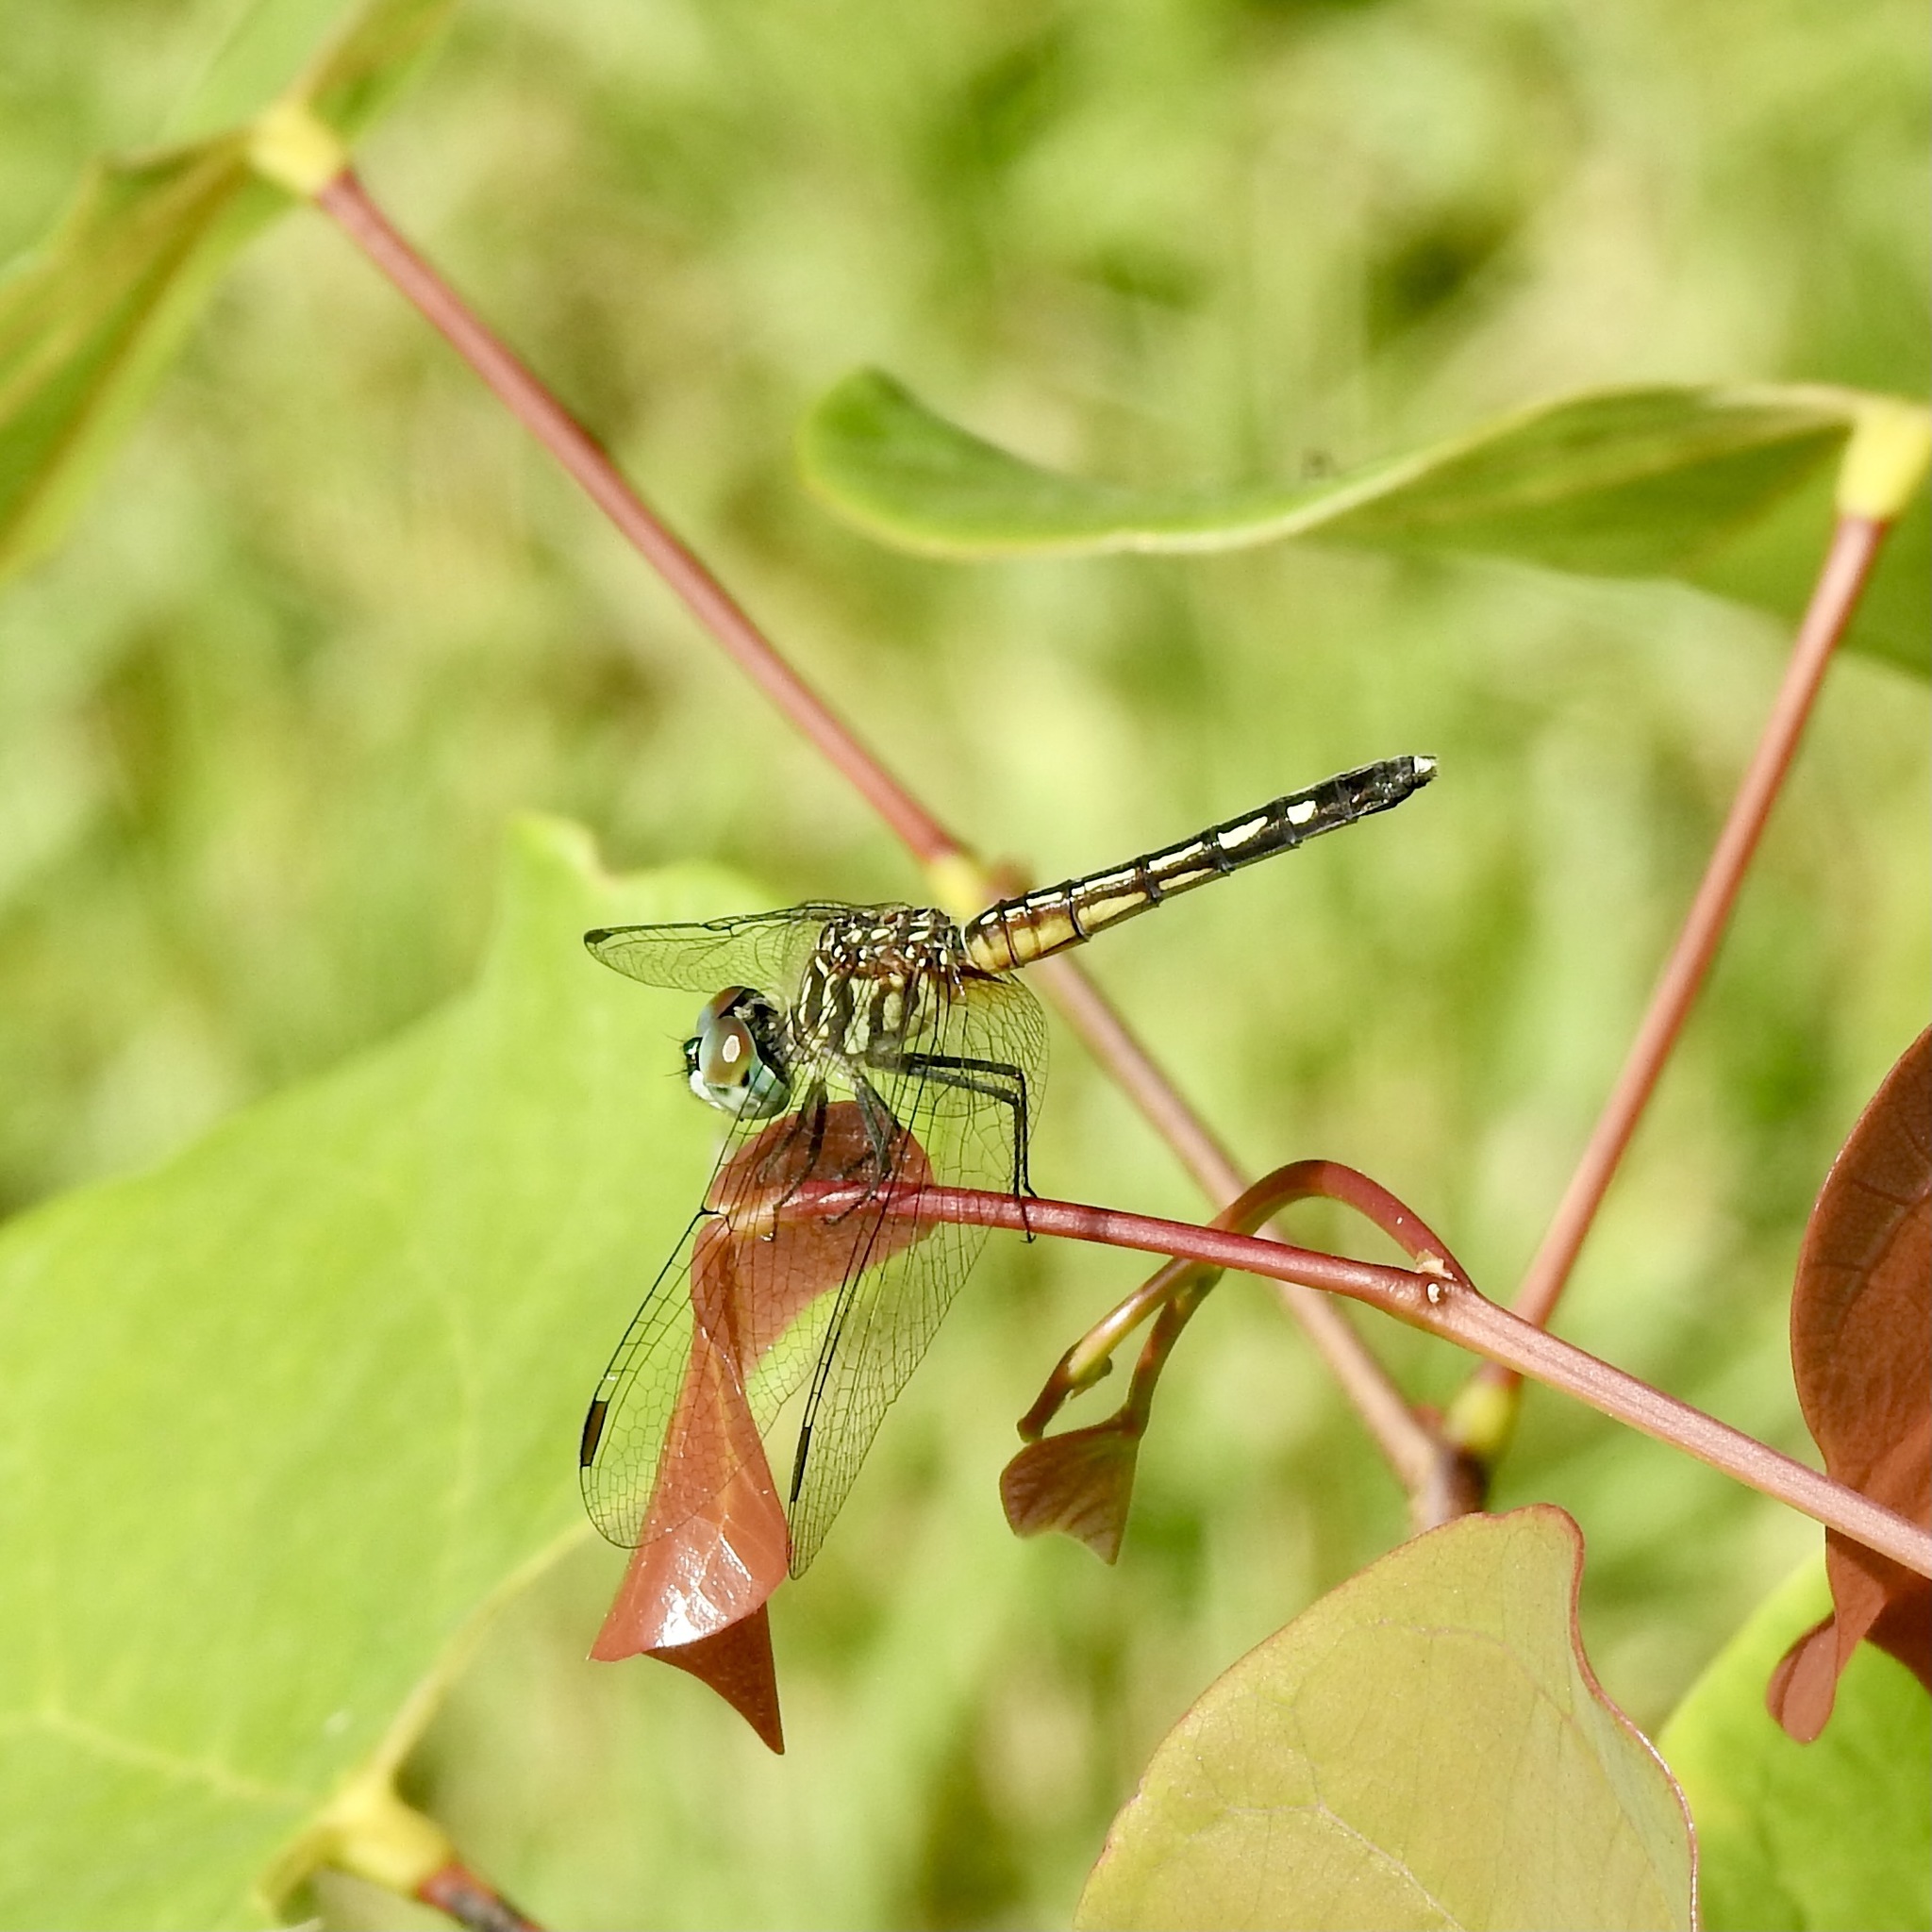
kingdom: Animalia
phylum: Arthropoda
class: Insecta
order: Odonata
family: Libellulidae
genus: Pachydiplax
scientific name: Pachydiplax longipennis
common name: Blue dasher
